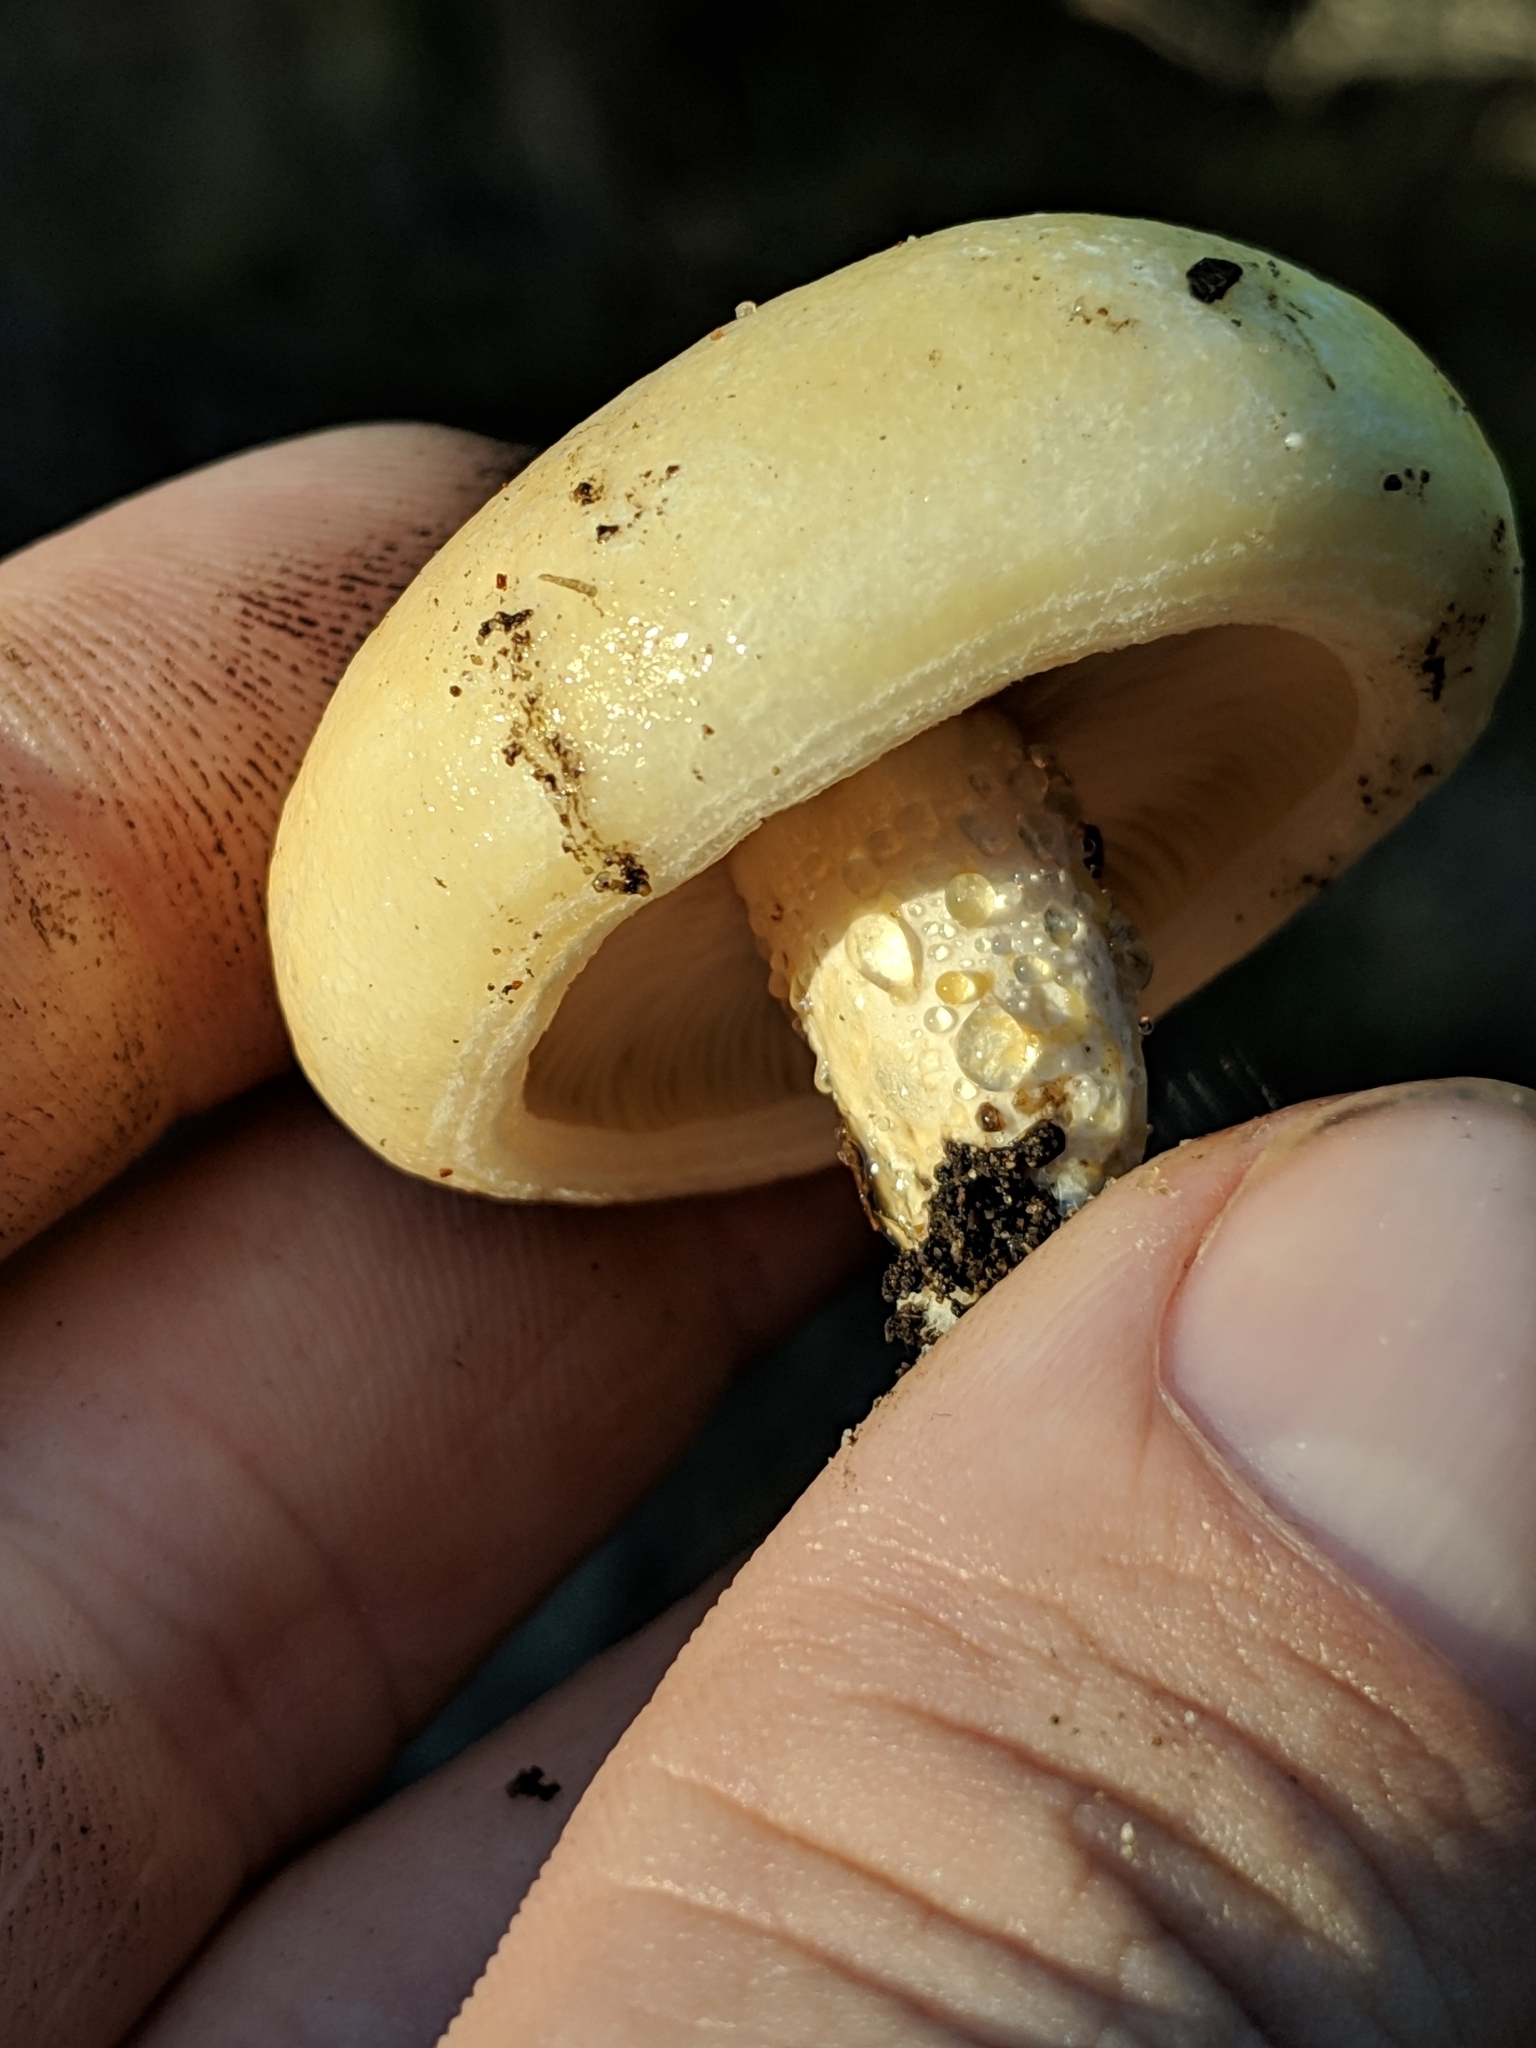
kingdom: Fungi
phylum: Basidiomycota
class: Agaricomycetes
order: Russulales
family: Russulaceae
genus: Lactarius
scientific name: Lactarius alnicola
